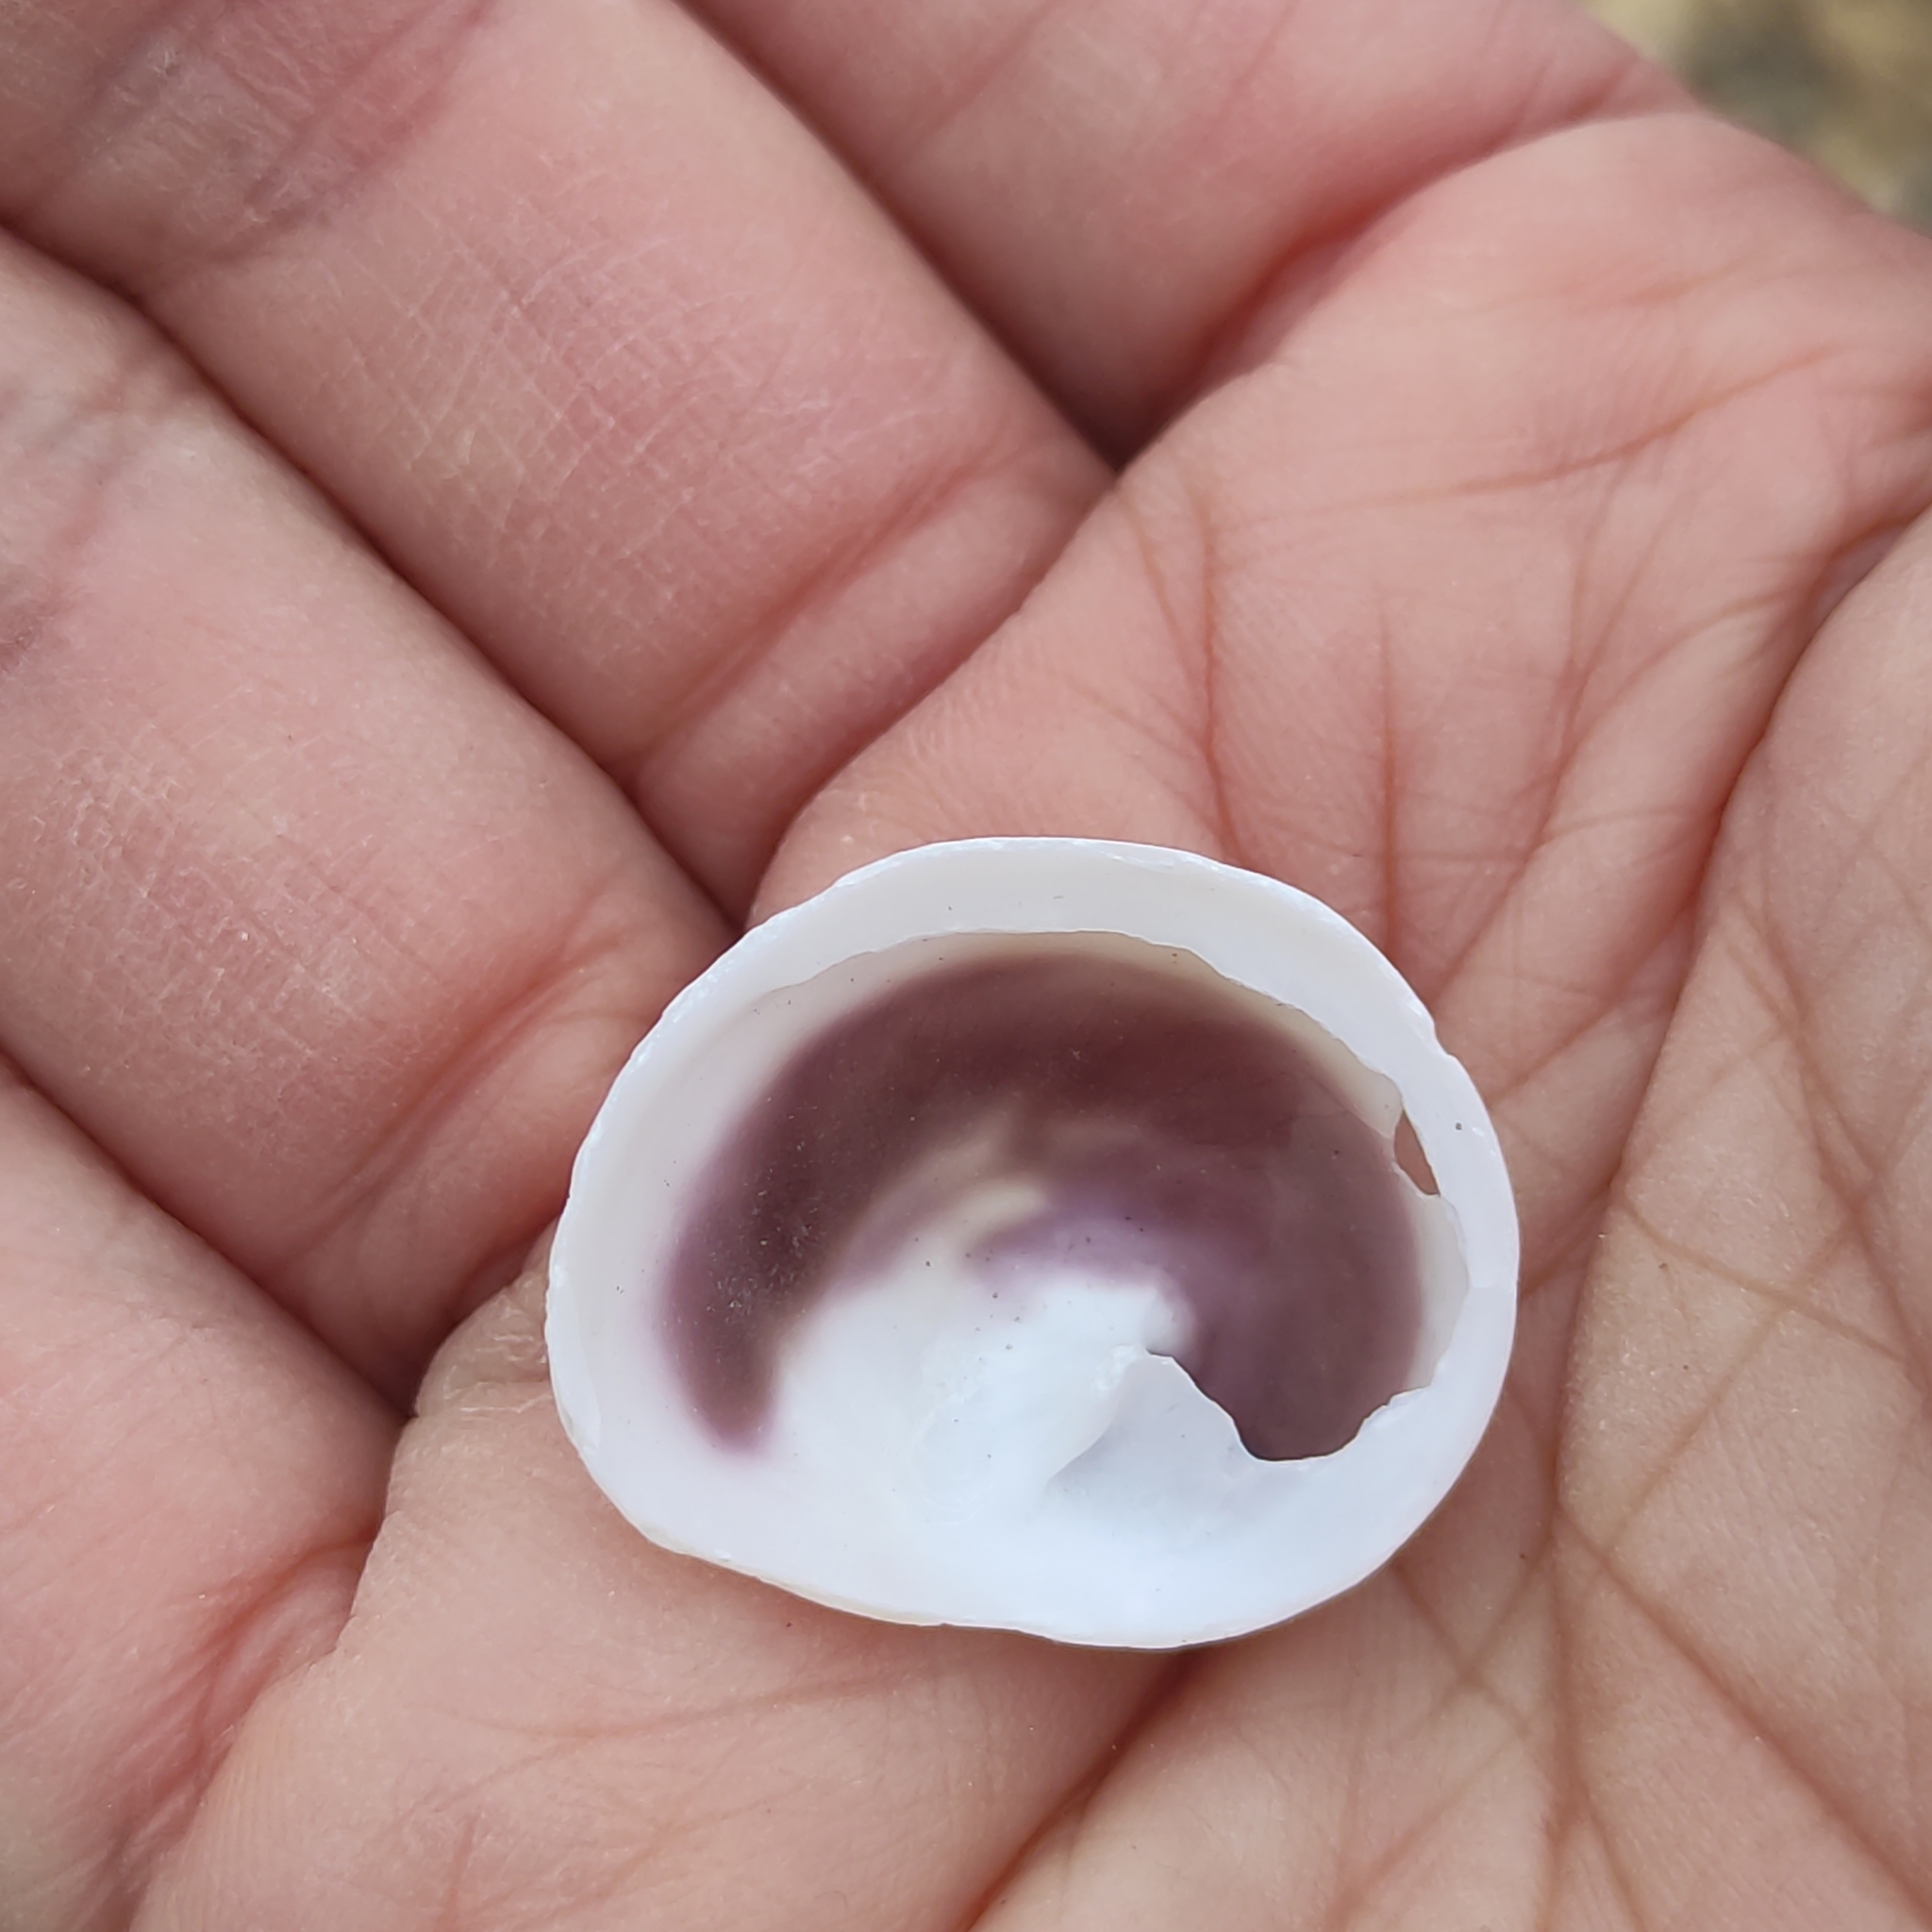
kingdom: Animalia
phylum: Mollusca
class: Gastropoda
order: Littorinimorpha
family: Calyptraeidae
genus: Sigapatella
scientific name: Sigapatella novaezelandiae
